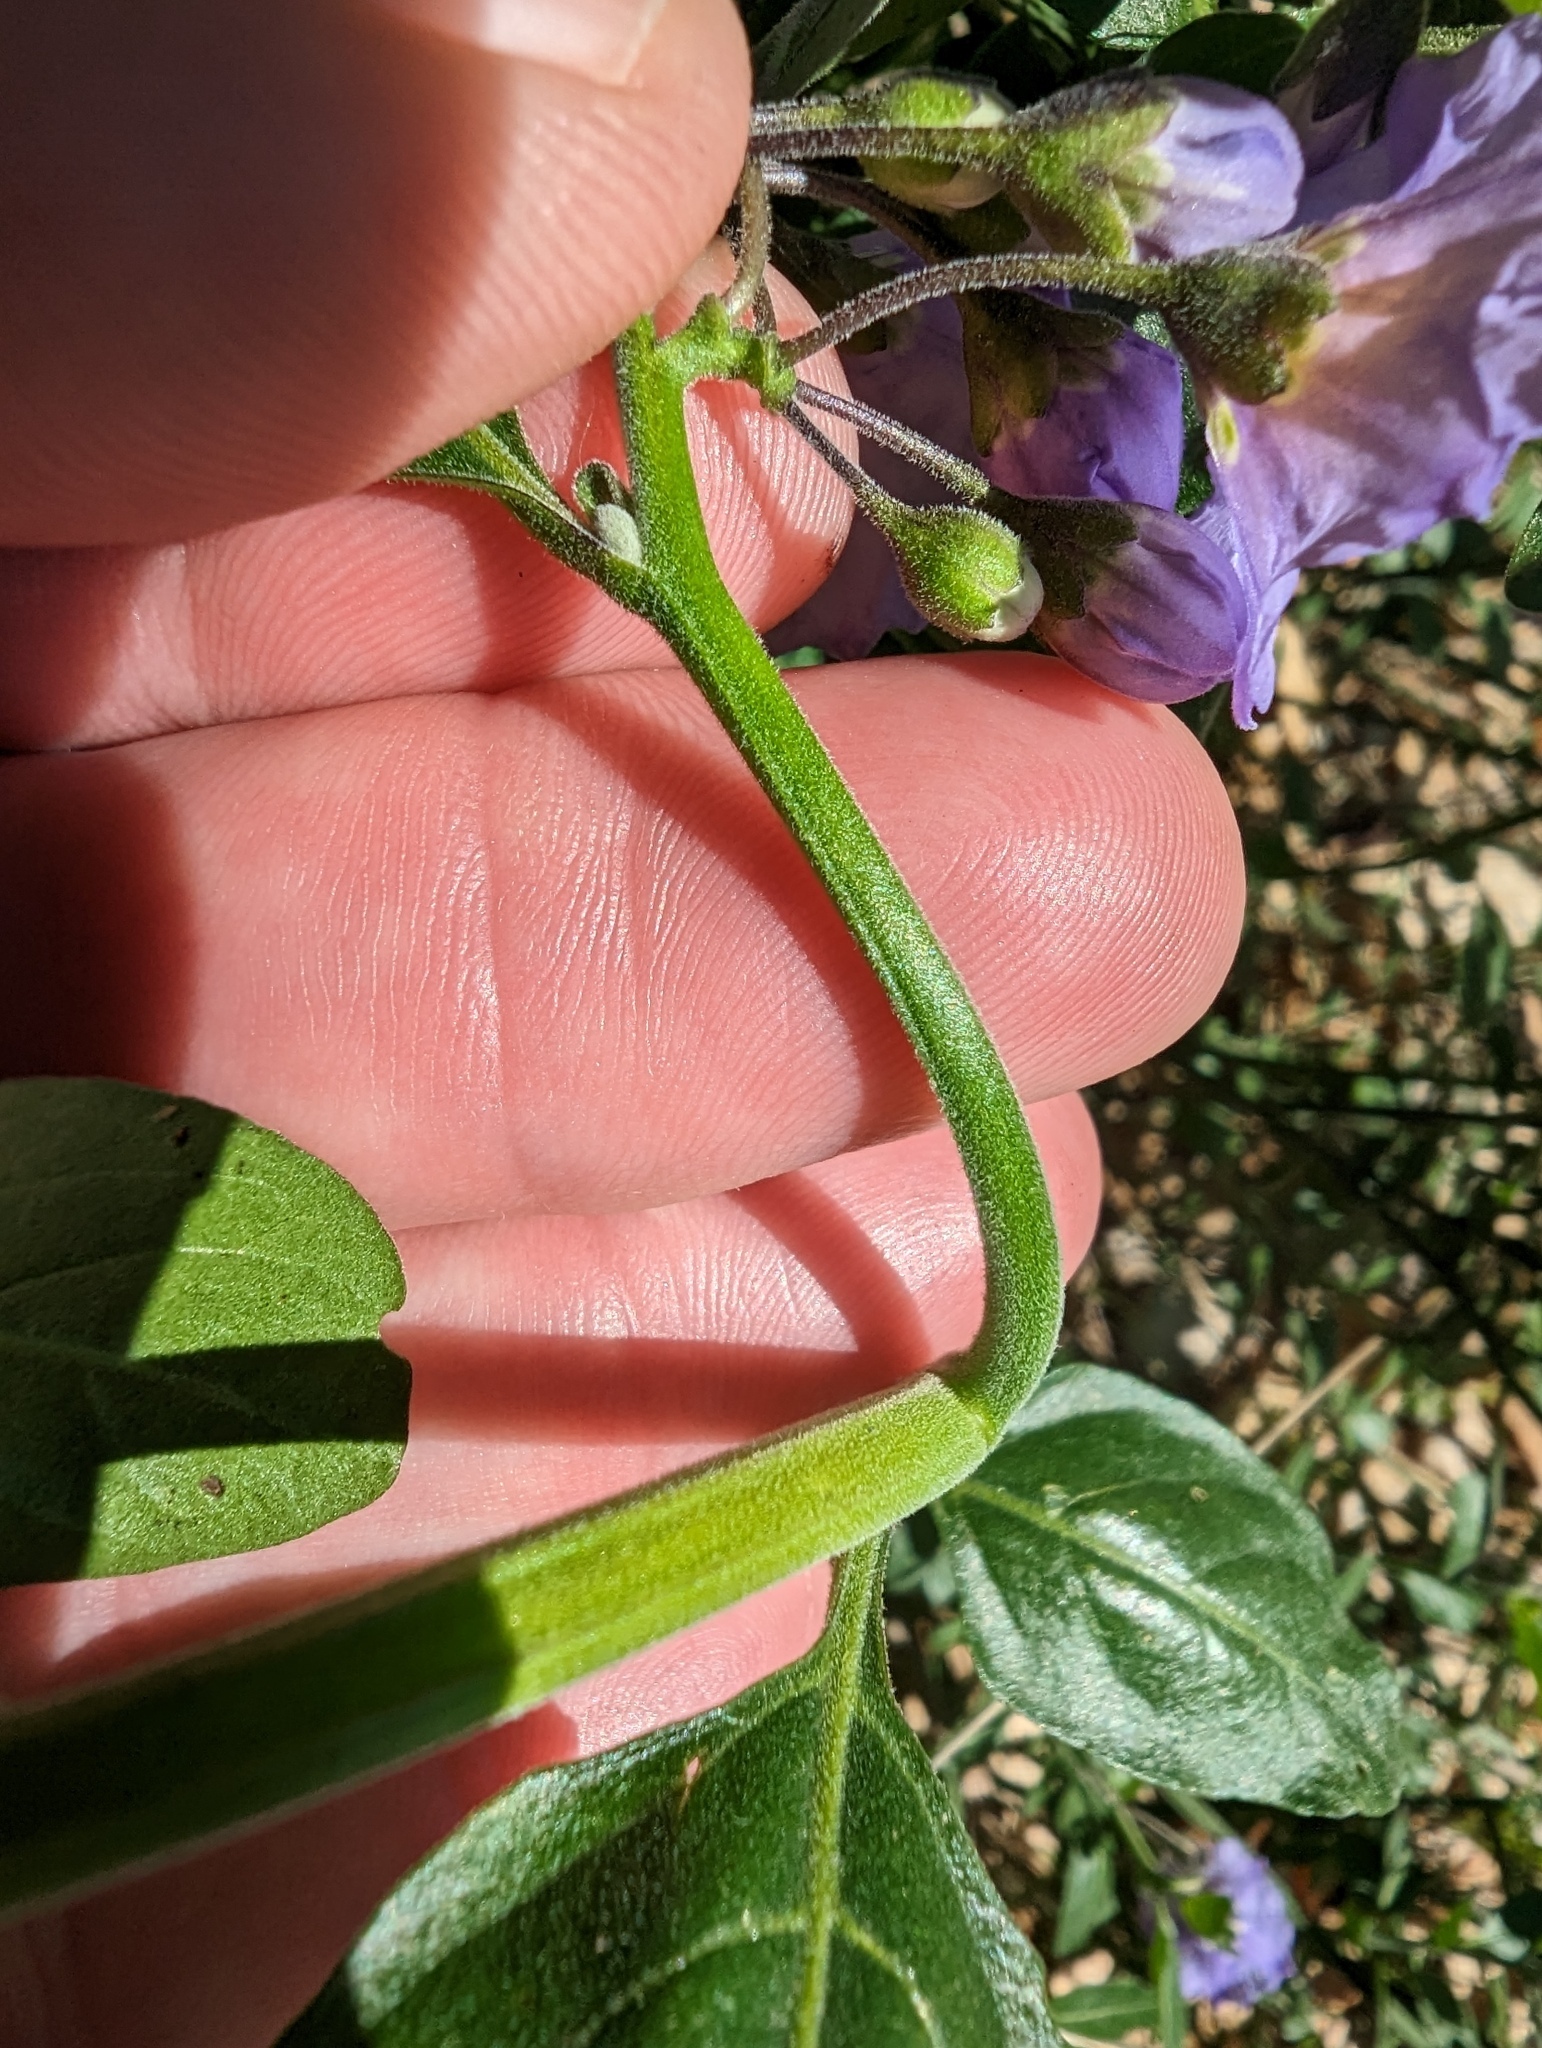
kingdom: Plantae
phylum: Tracheophyta
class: Magnoliopsida
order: Solanales
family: Solanaceae
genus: Solanum
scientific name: Solanum umbelliferum
